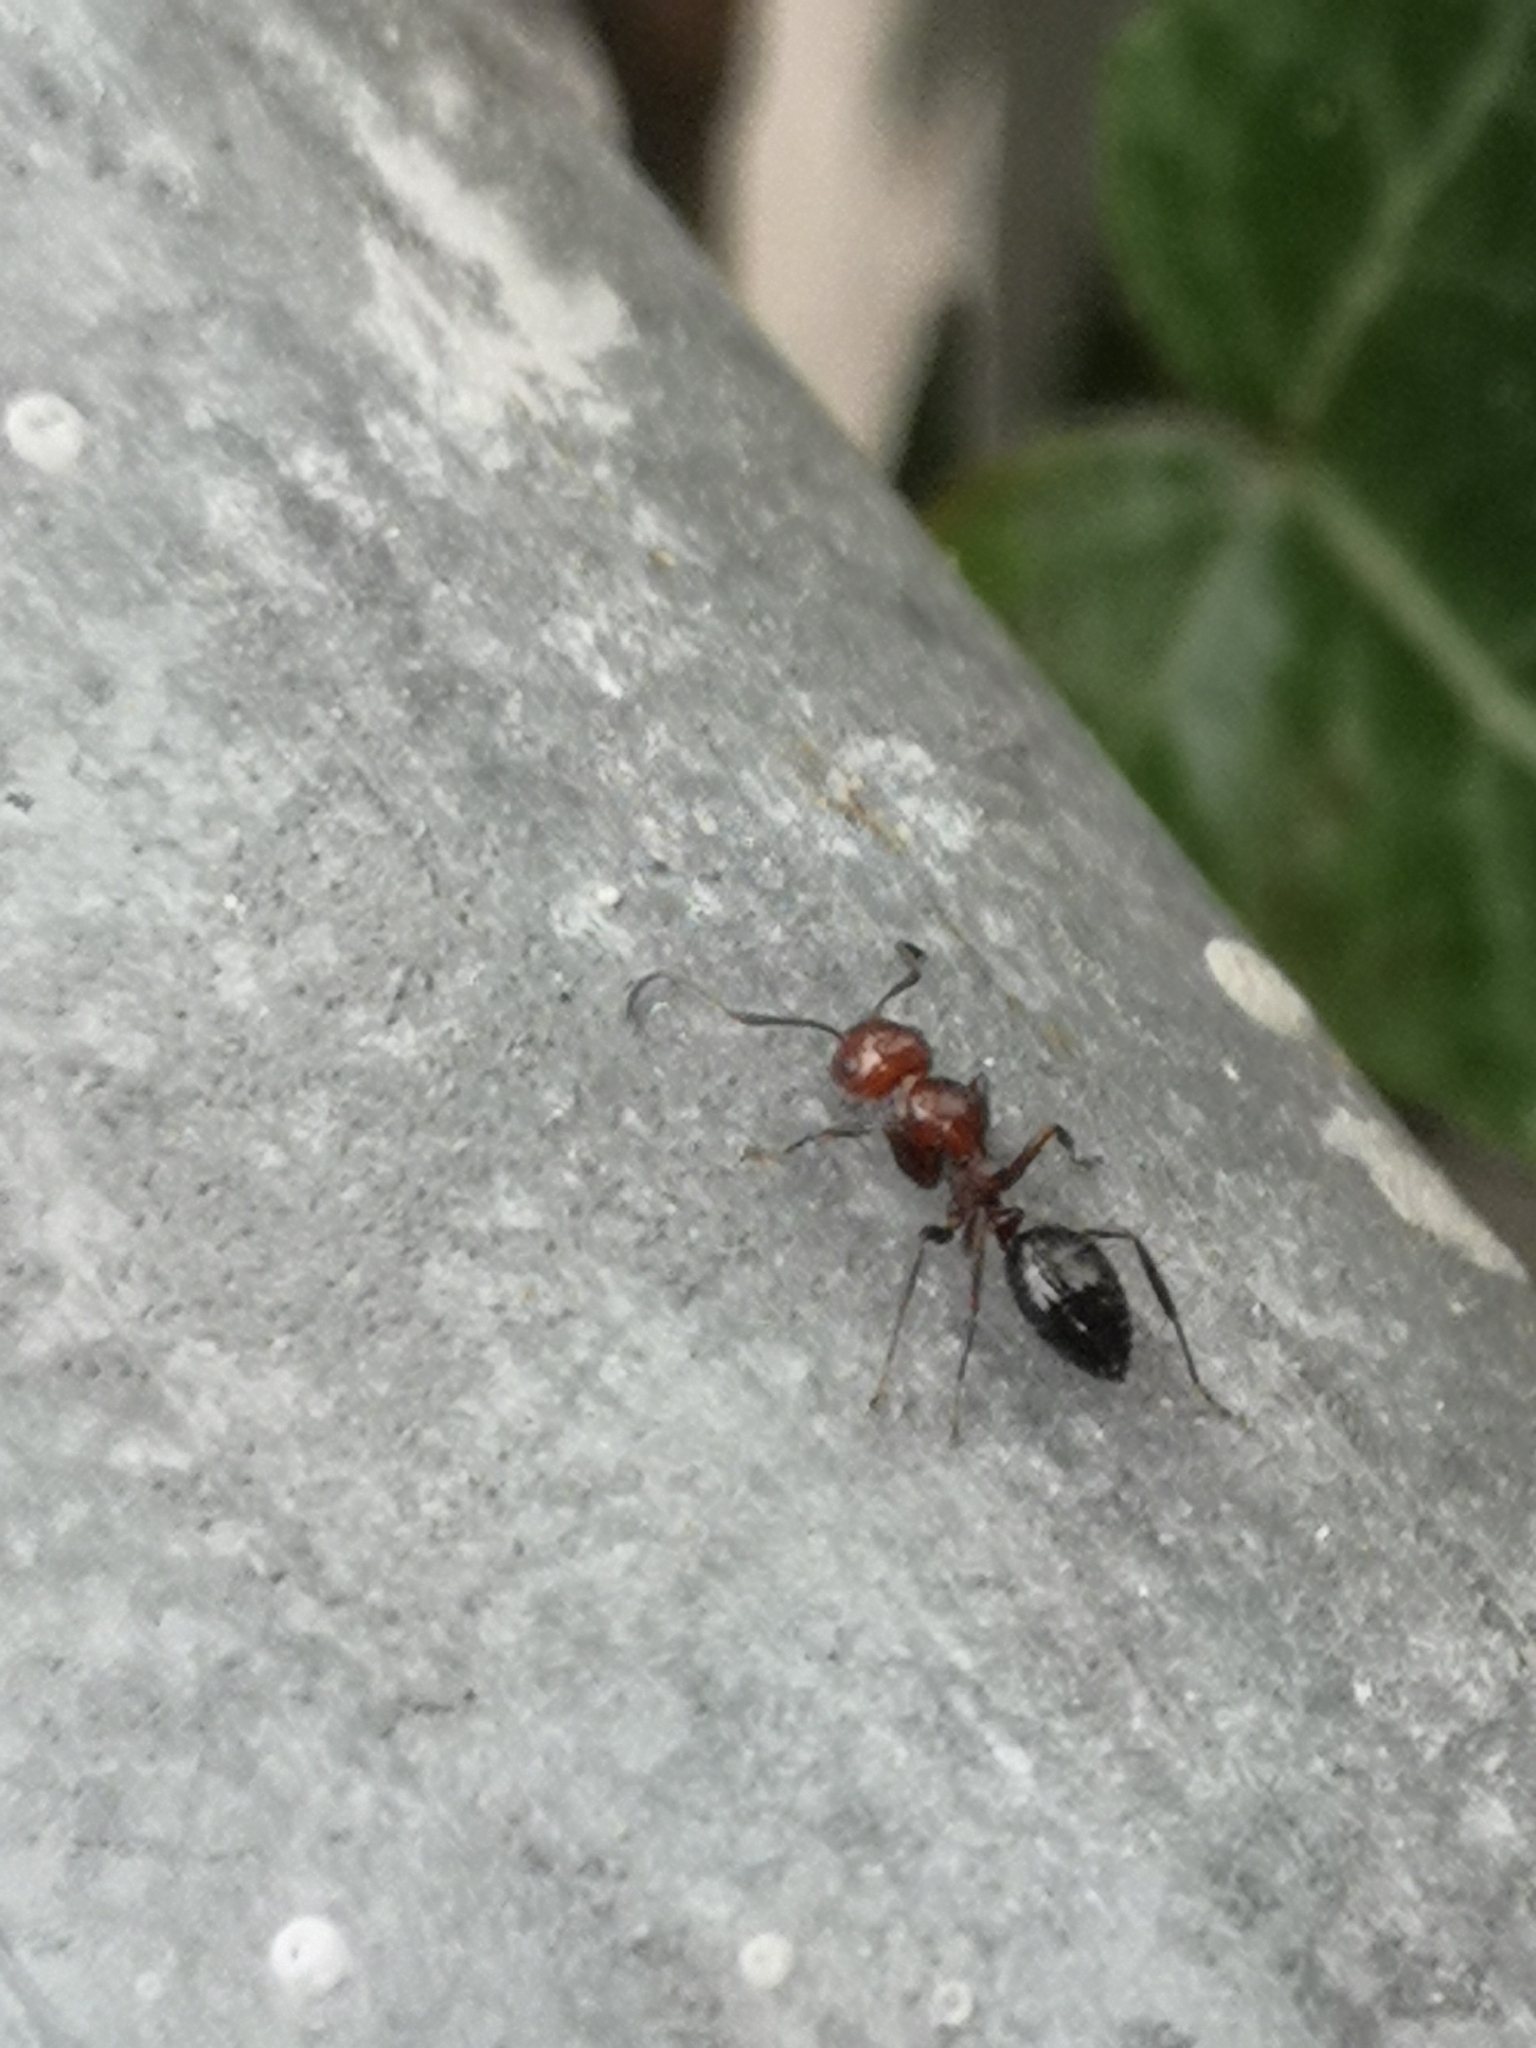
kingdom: Animalia
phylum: Arthropoda
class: Insecta
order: Hymenoptera
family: Formicidae
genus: Camponotus
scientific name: Camponotus lateralis
